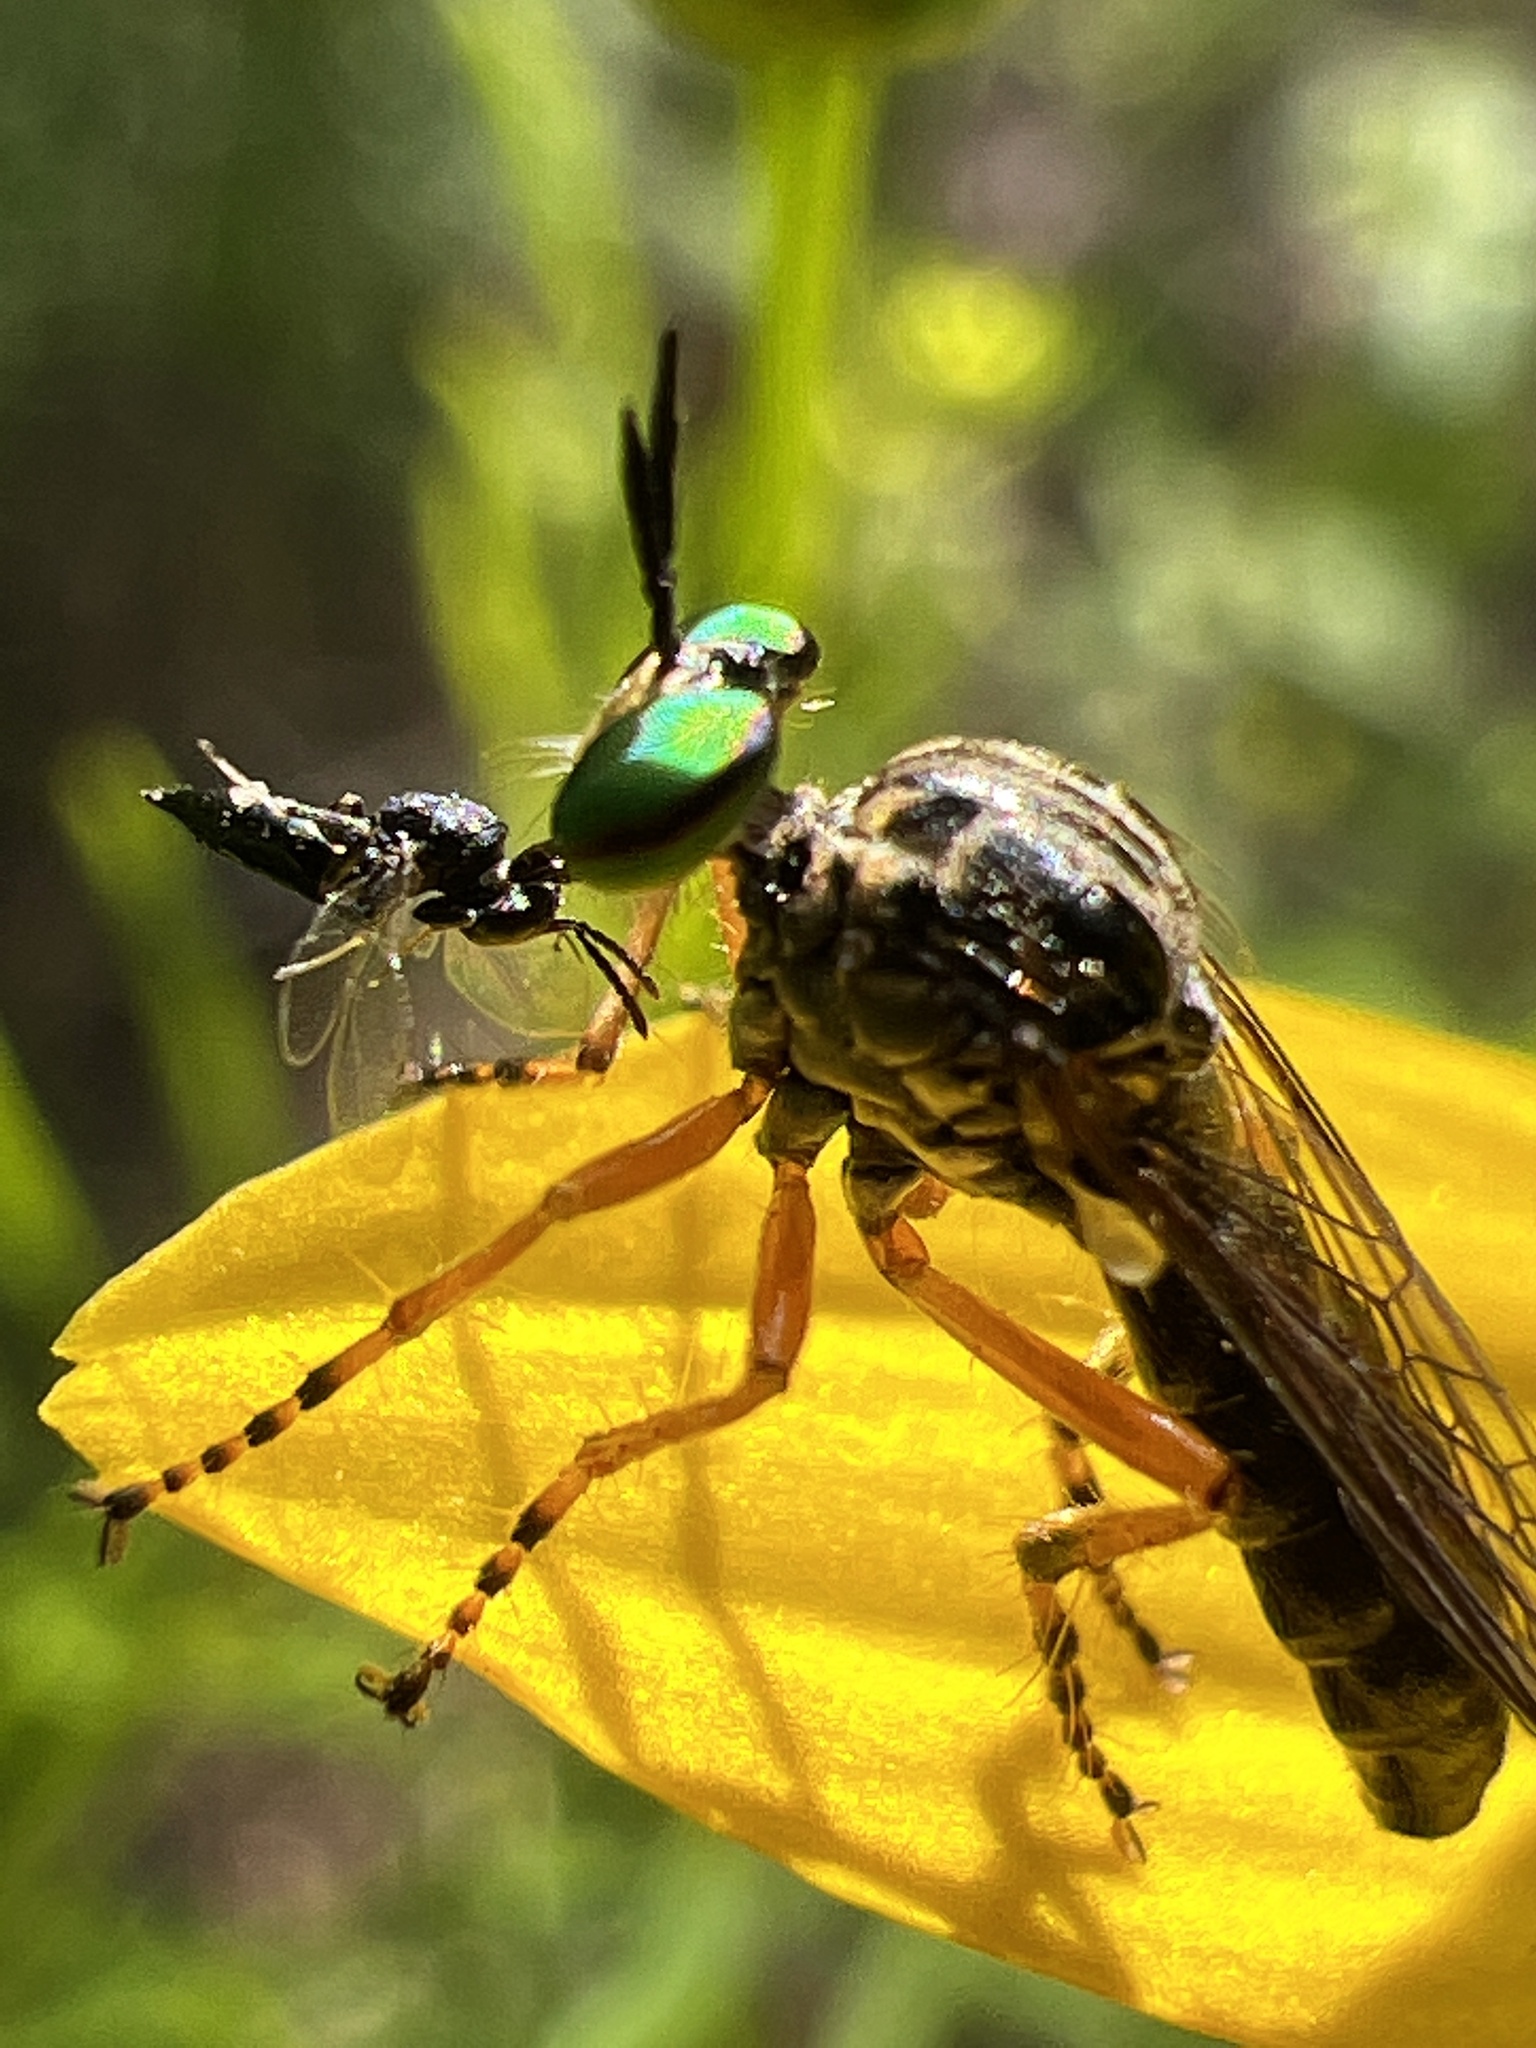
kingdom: Animalia
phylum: Arthropoda
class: Insecta
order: Diptera
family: Asilidae
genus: Taracticus
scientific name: Taracticus octopunctatus
